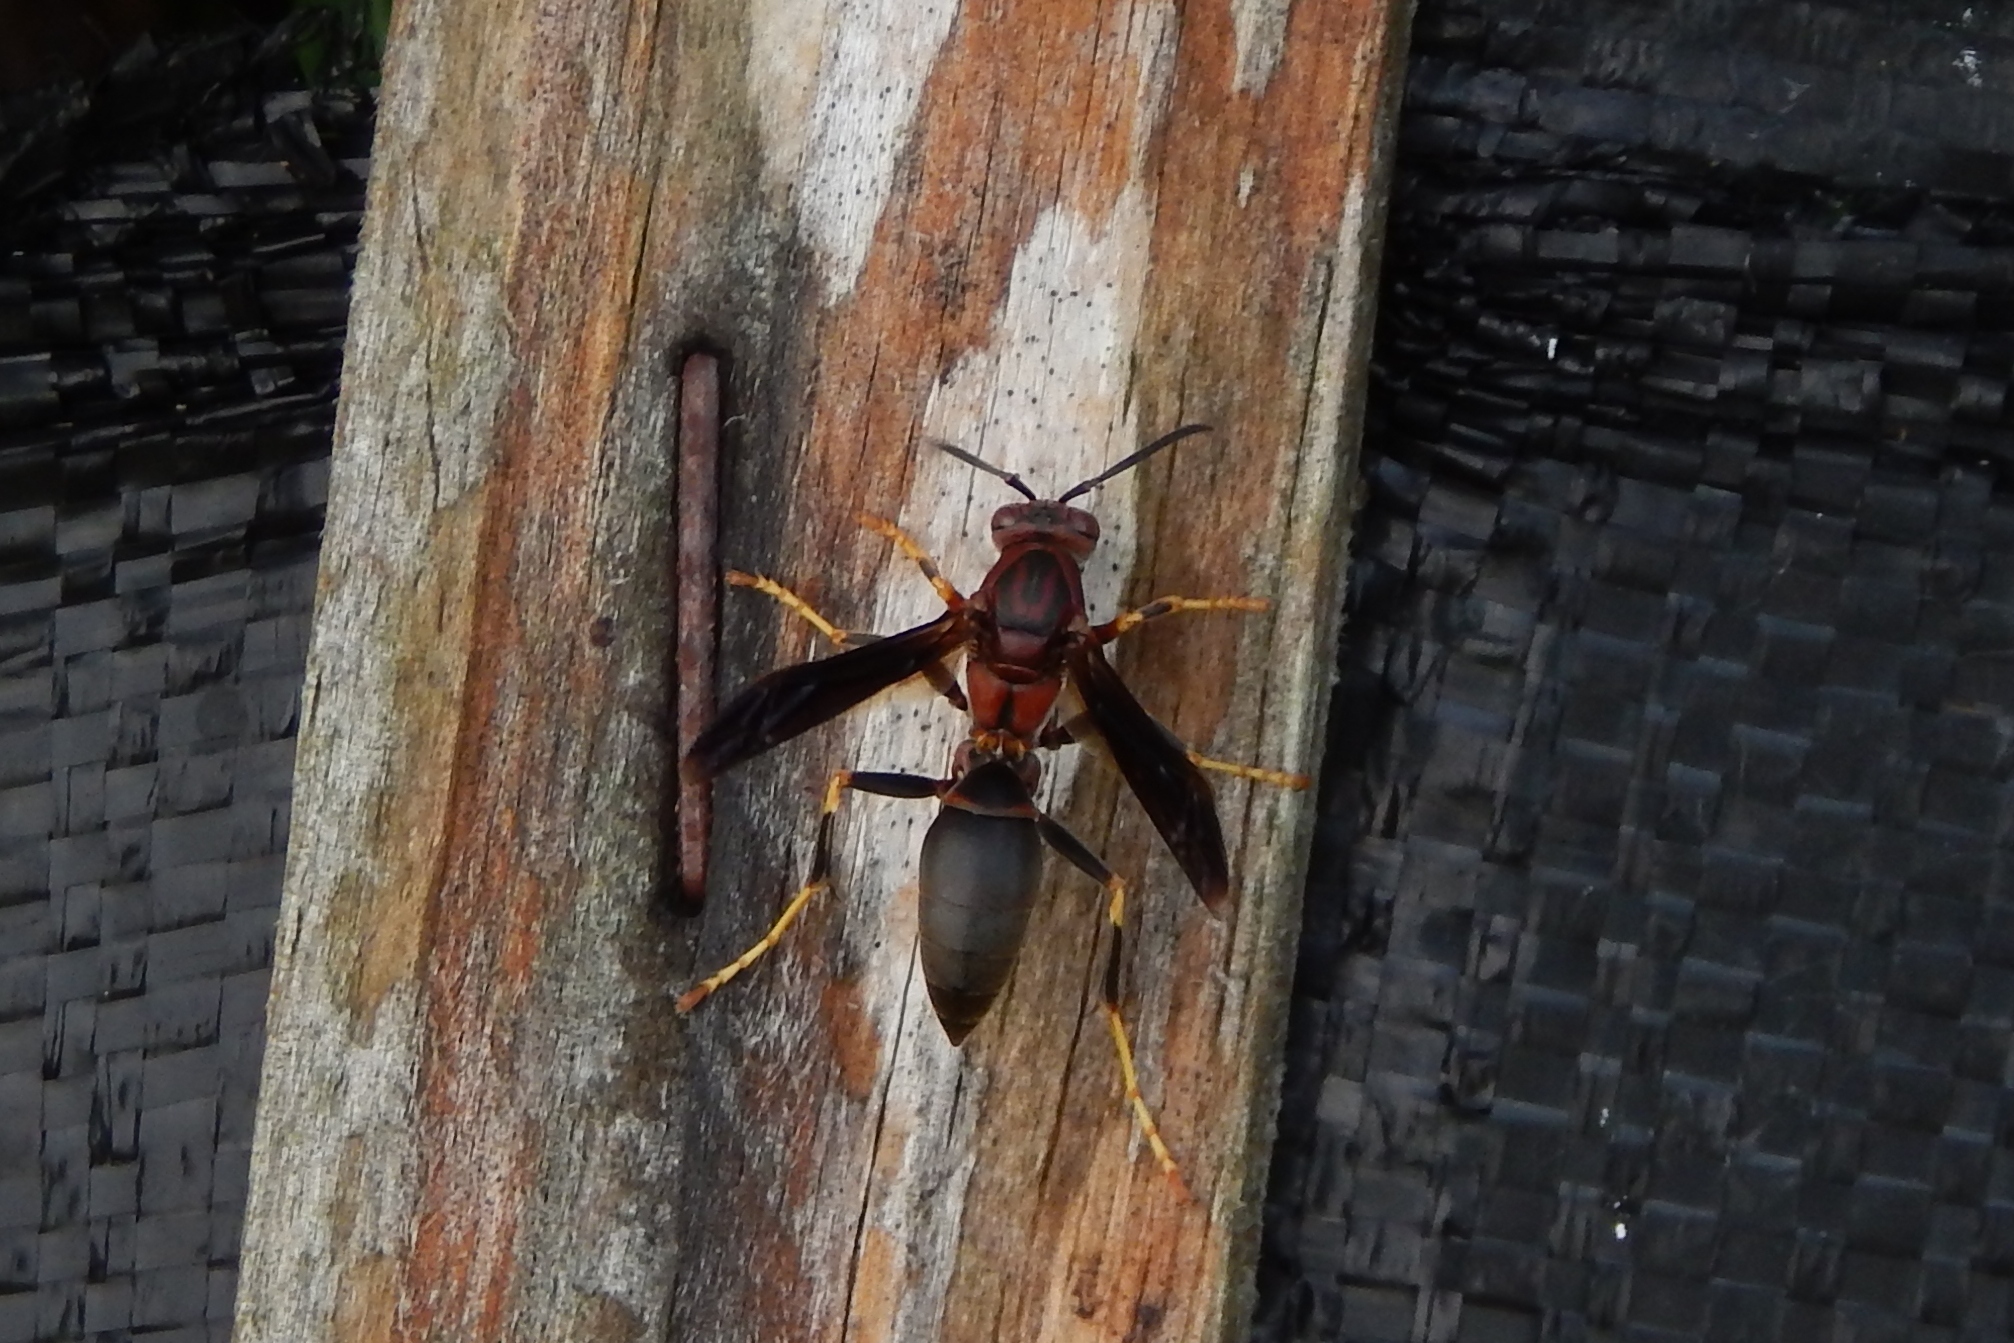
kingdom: Animalia
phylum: Arthropoda
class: Insecta
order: Hymenoptera
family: Eumenidae
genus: Polistes
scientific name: Polistes metricus
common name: Metric paper wasp
